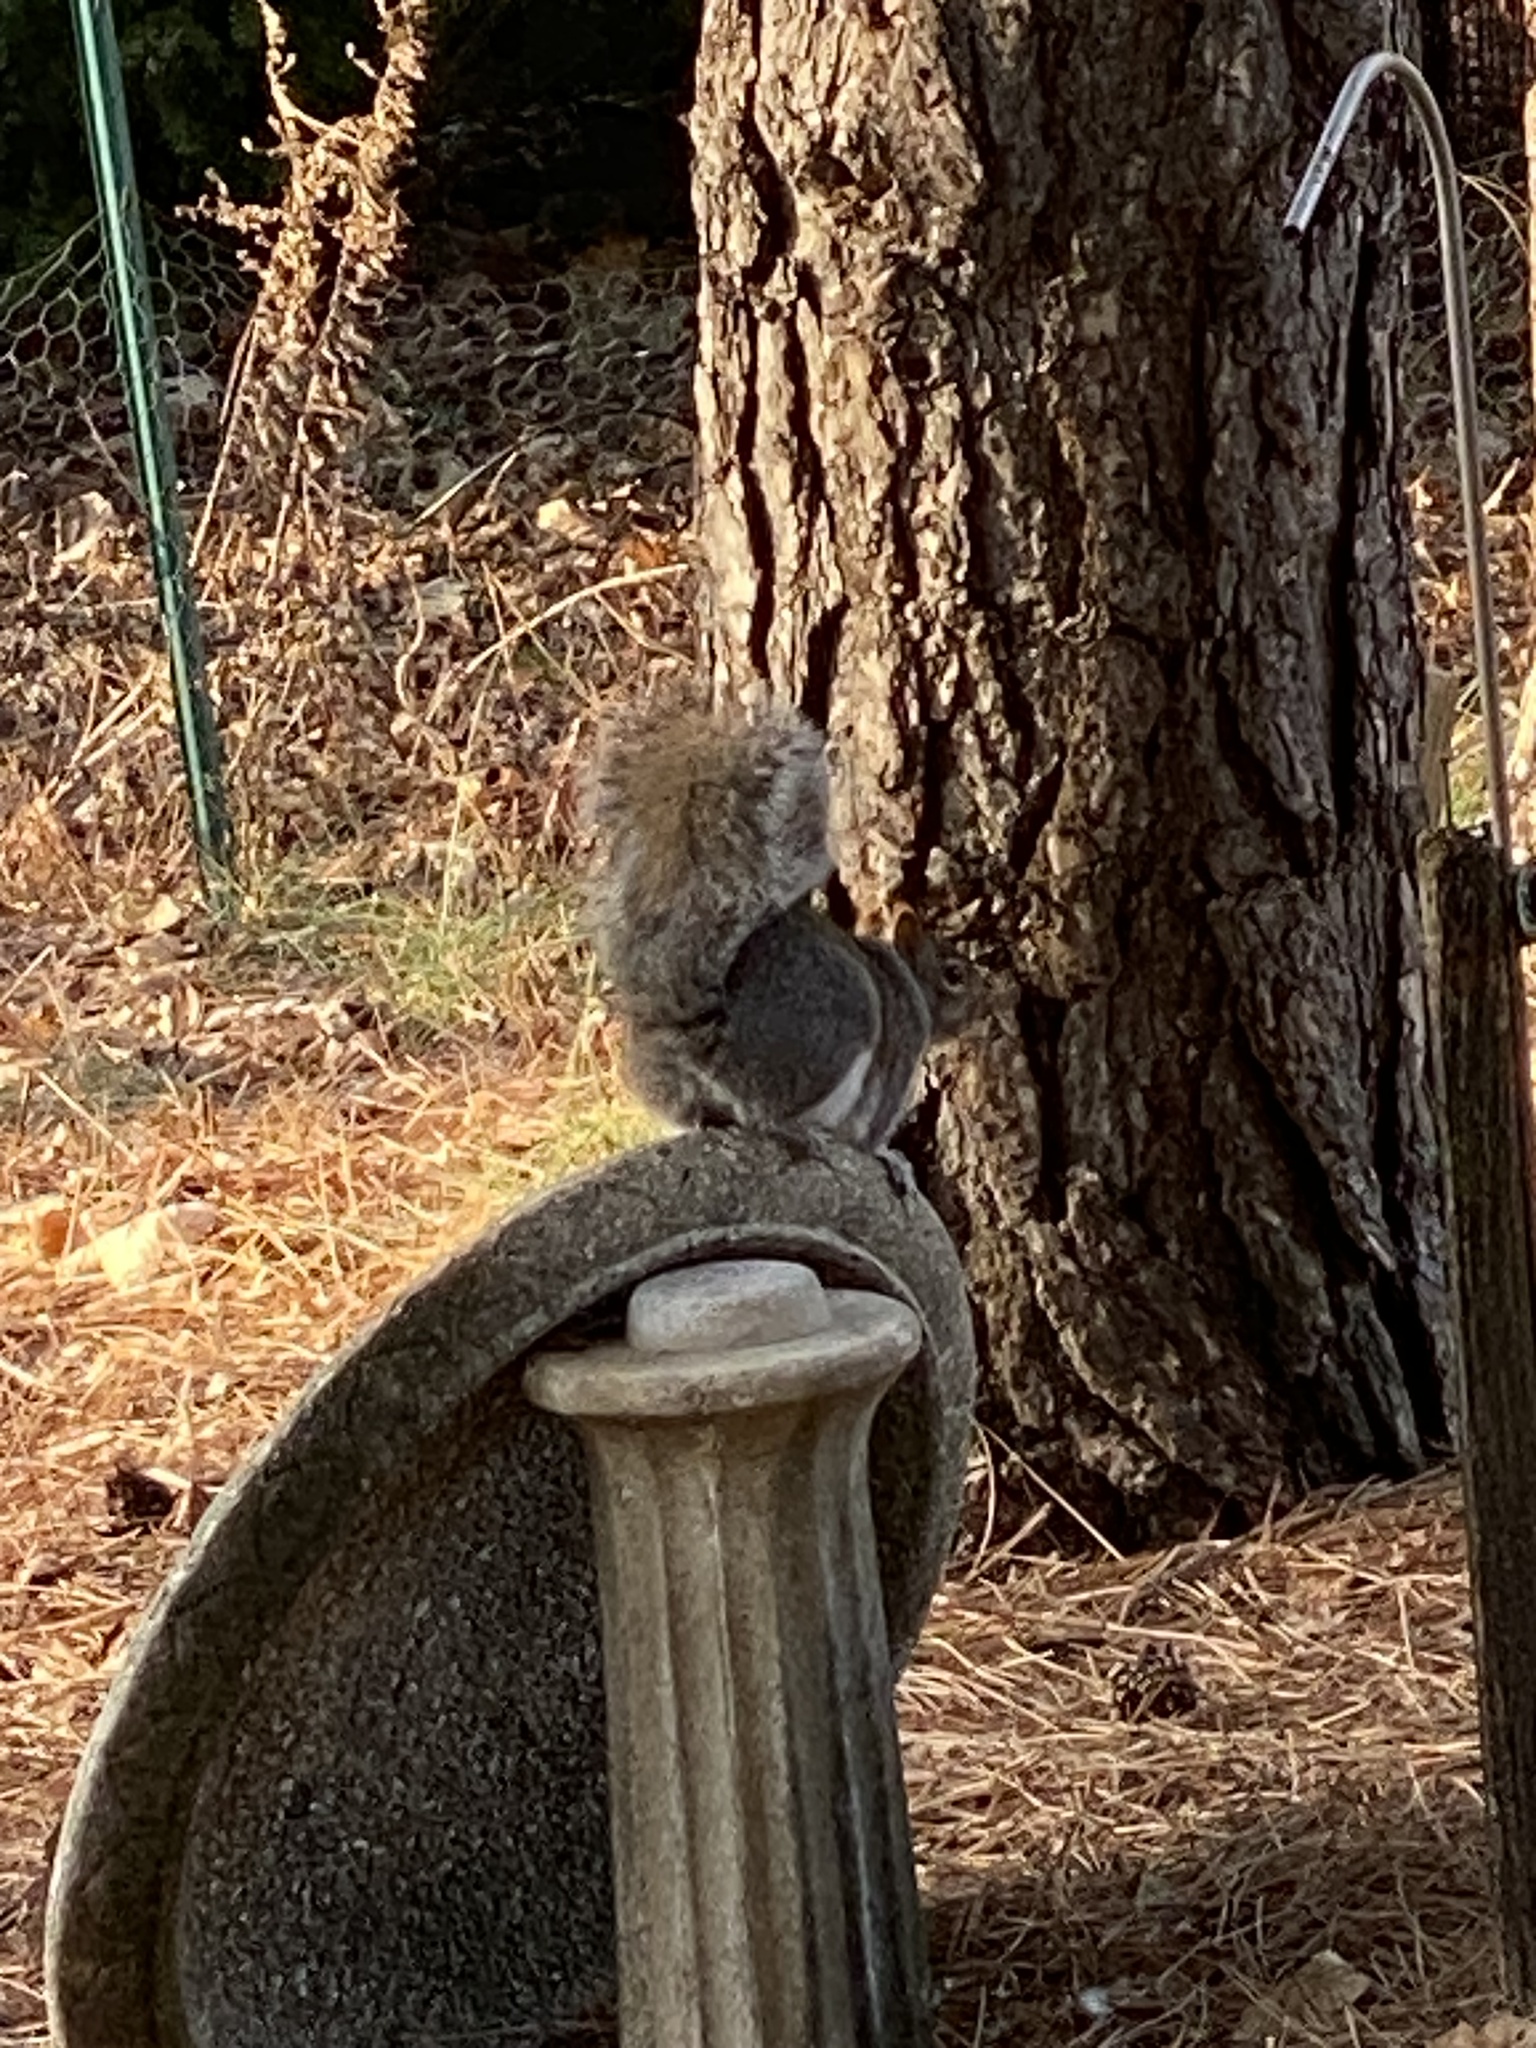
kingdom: Animalia
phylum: Chordata
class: Mammalia
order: Rodentia
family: Sciuridae
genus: Sciurus
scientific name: Sciurus carolinensis
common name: Eastern gray squirrel
